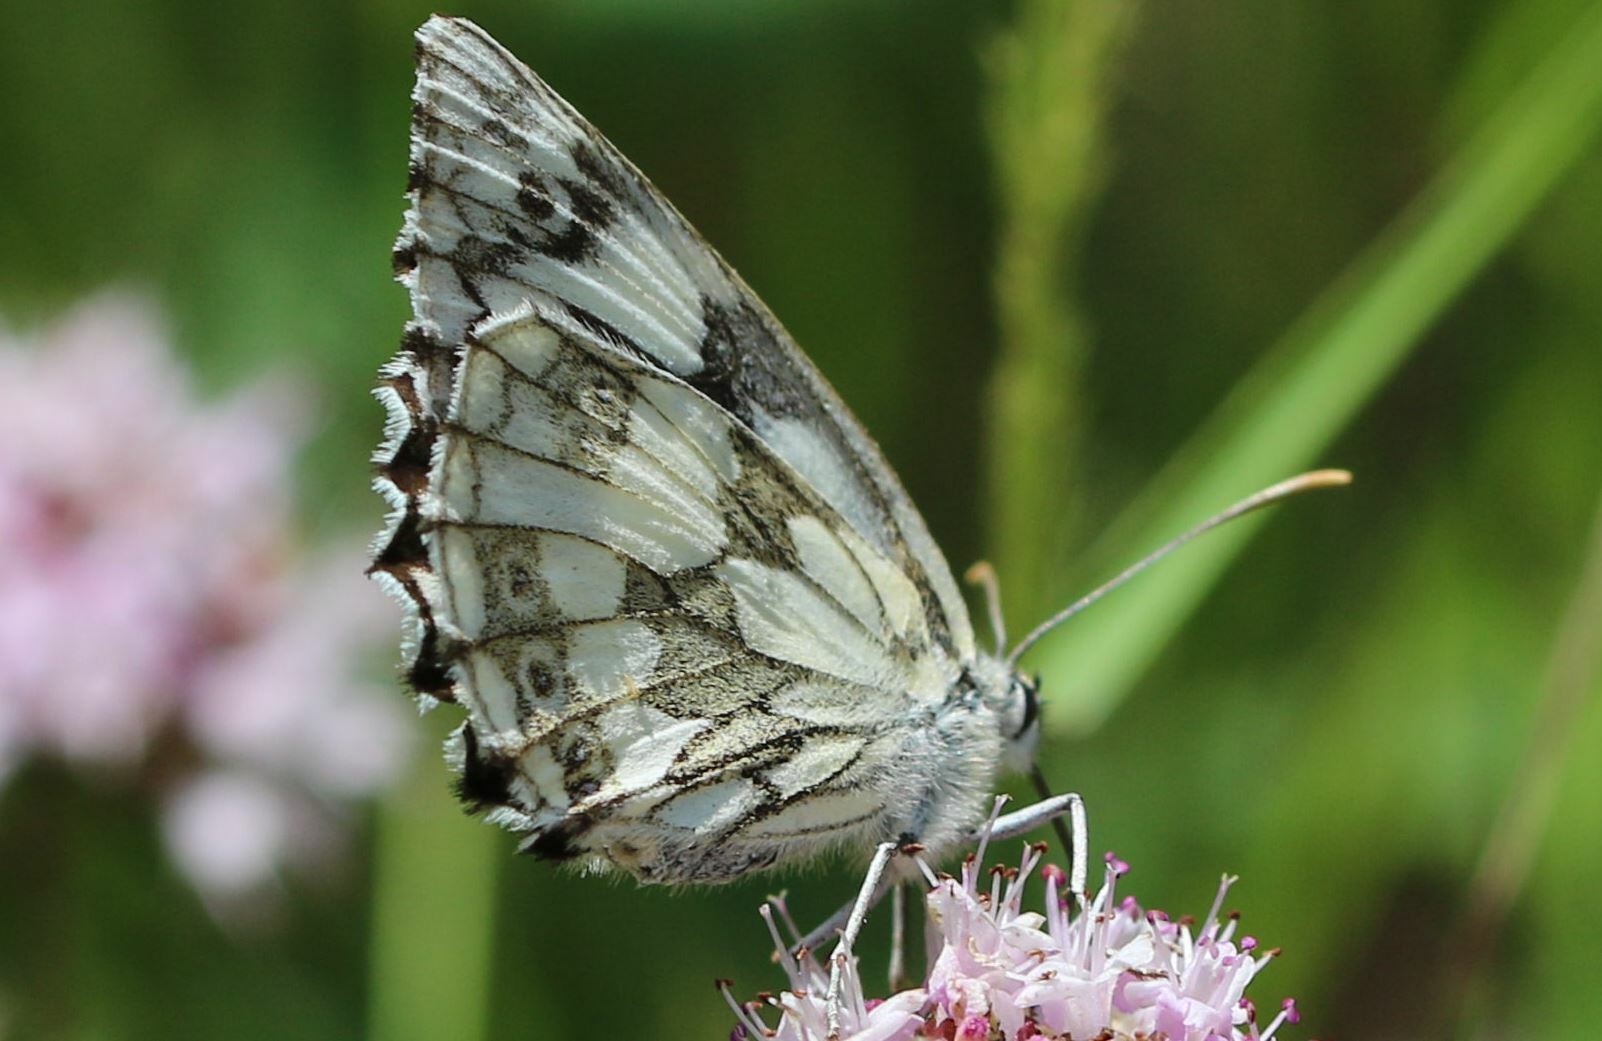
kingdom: Animalia
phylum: Arthropoda
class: Insecta
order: Lepidoptera
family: Nymphalidae
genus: Melanargia
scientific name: Melanargia galathea
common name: Marbled white
